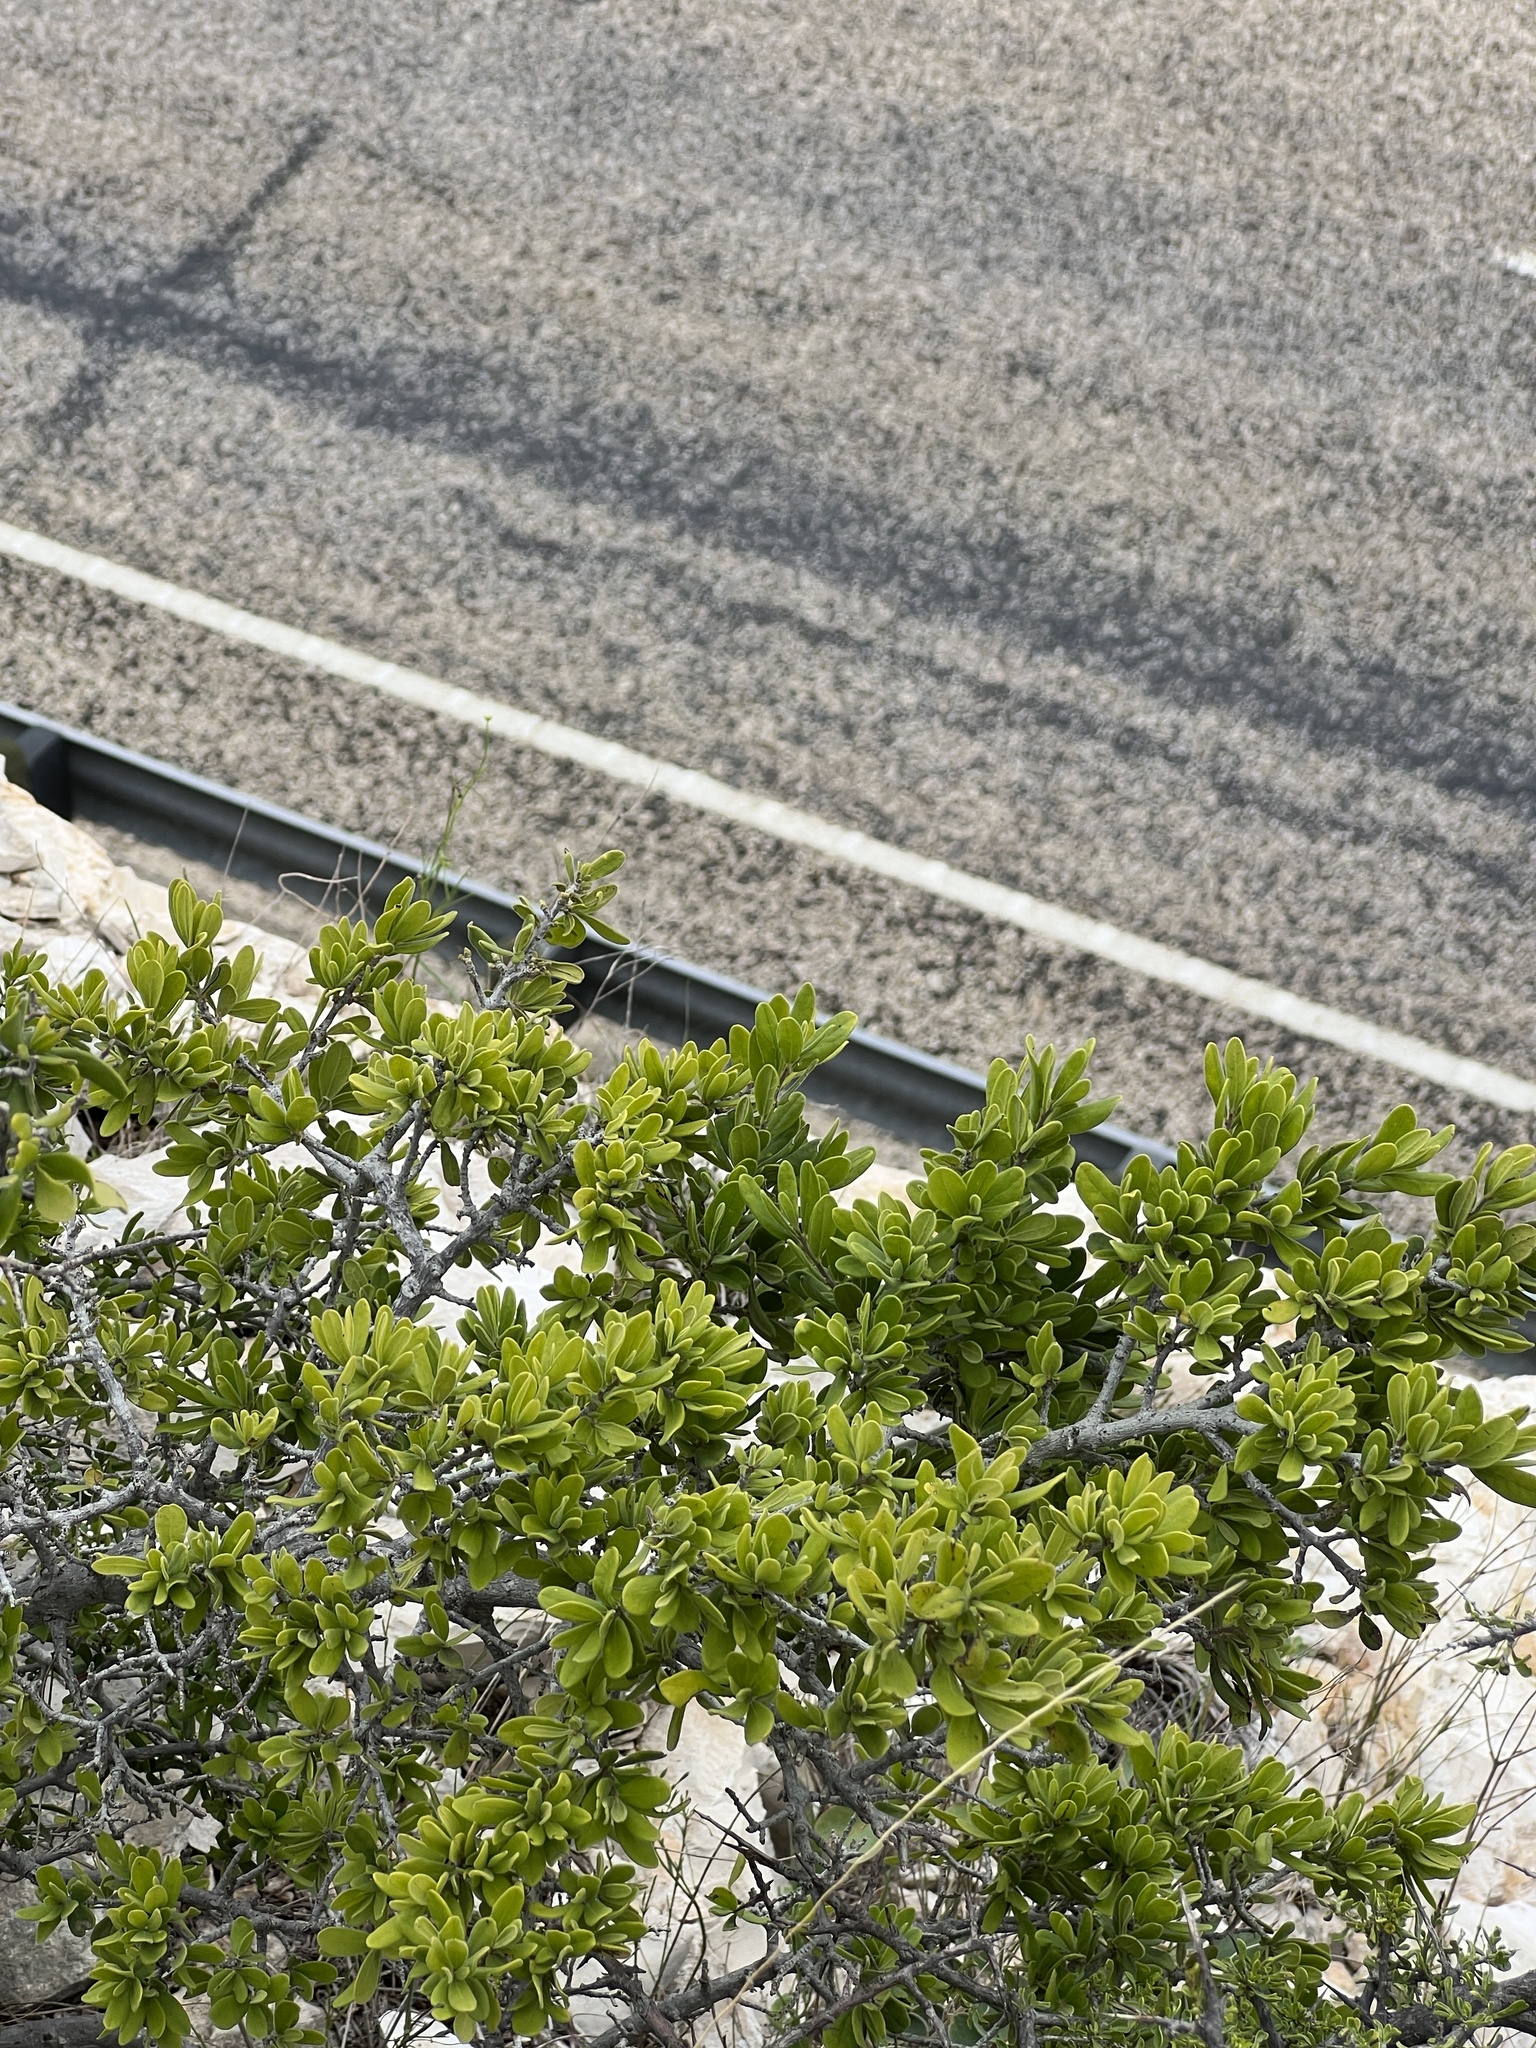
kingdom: Plantae
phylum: Tracheophyta
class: Magnoliopsida
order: Ericales
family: Ebenaceae
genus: Diospyros
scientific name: Diospyros texana
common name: Texas persimmon
